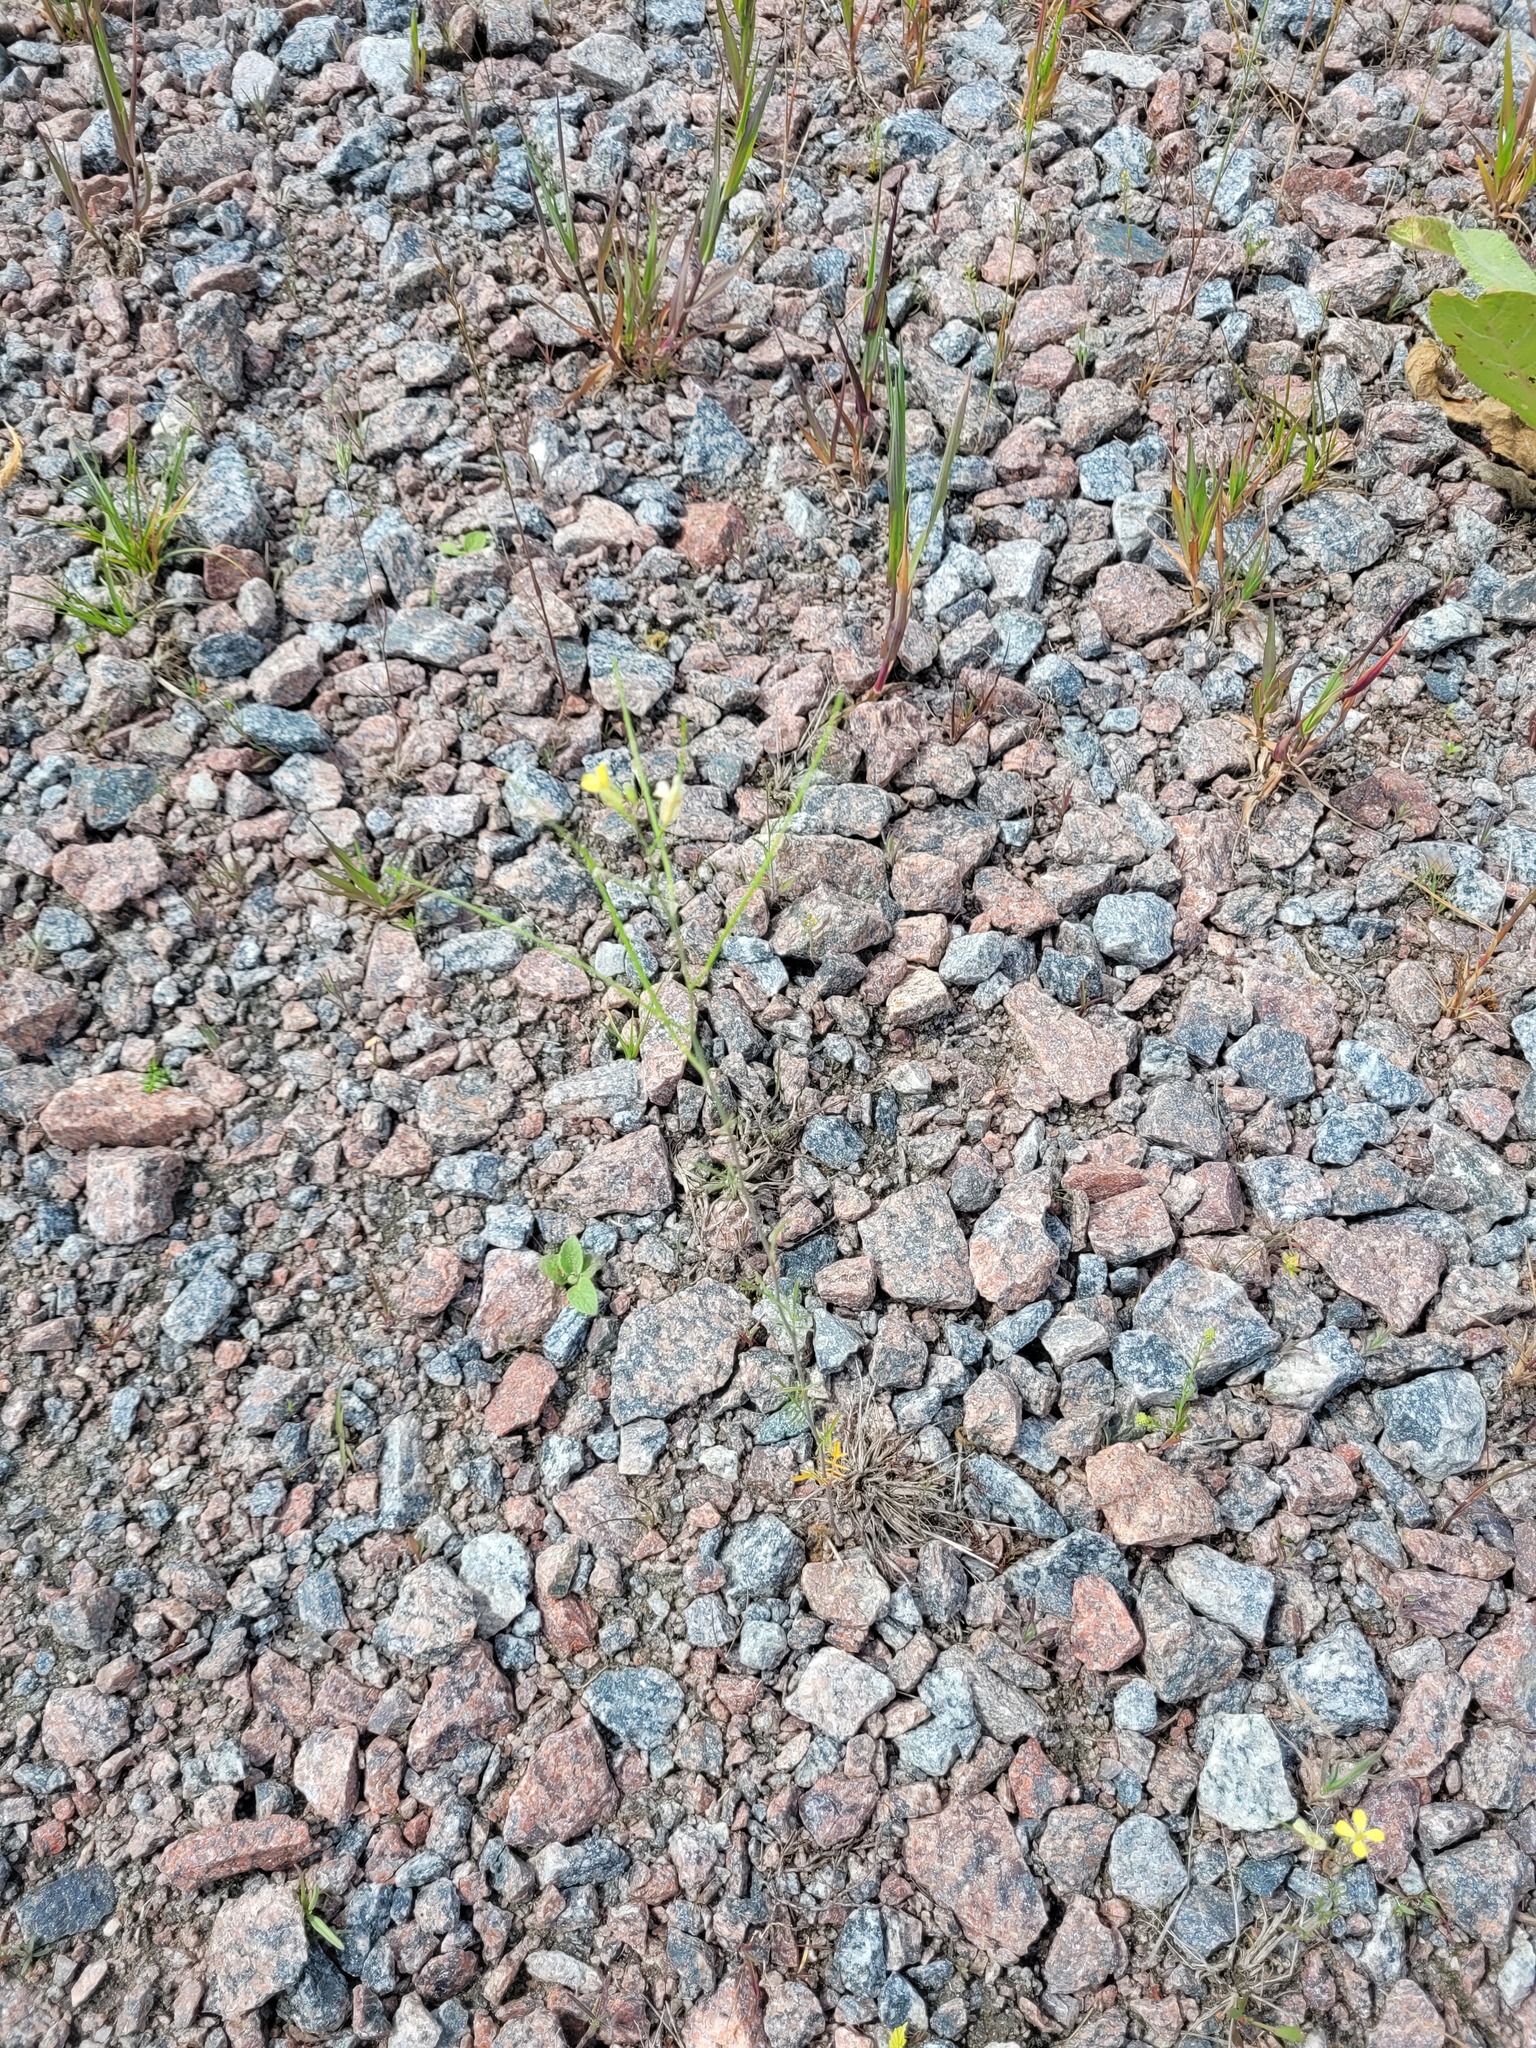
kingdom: Plantae
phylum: Tracheophyta
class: Magnoliopsida
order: Brassicales
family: Brassicaceae
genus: Sisymbrium
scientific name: Sisymbrium altissimum
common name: Tall rocket
